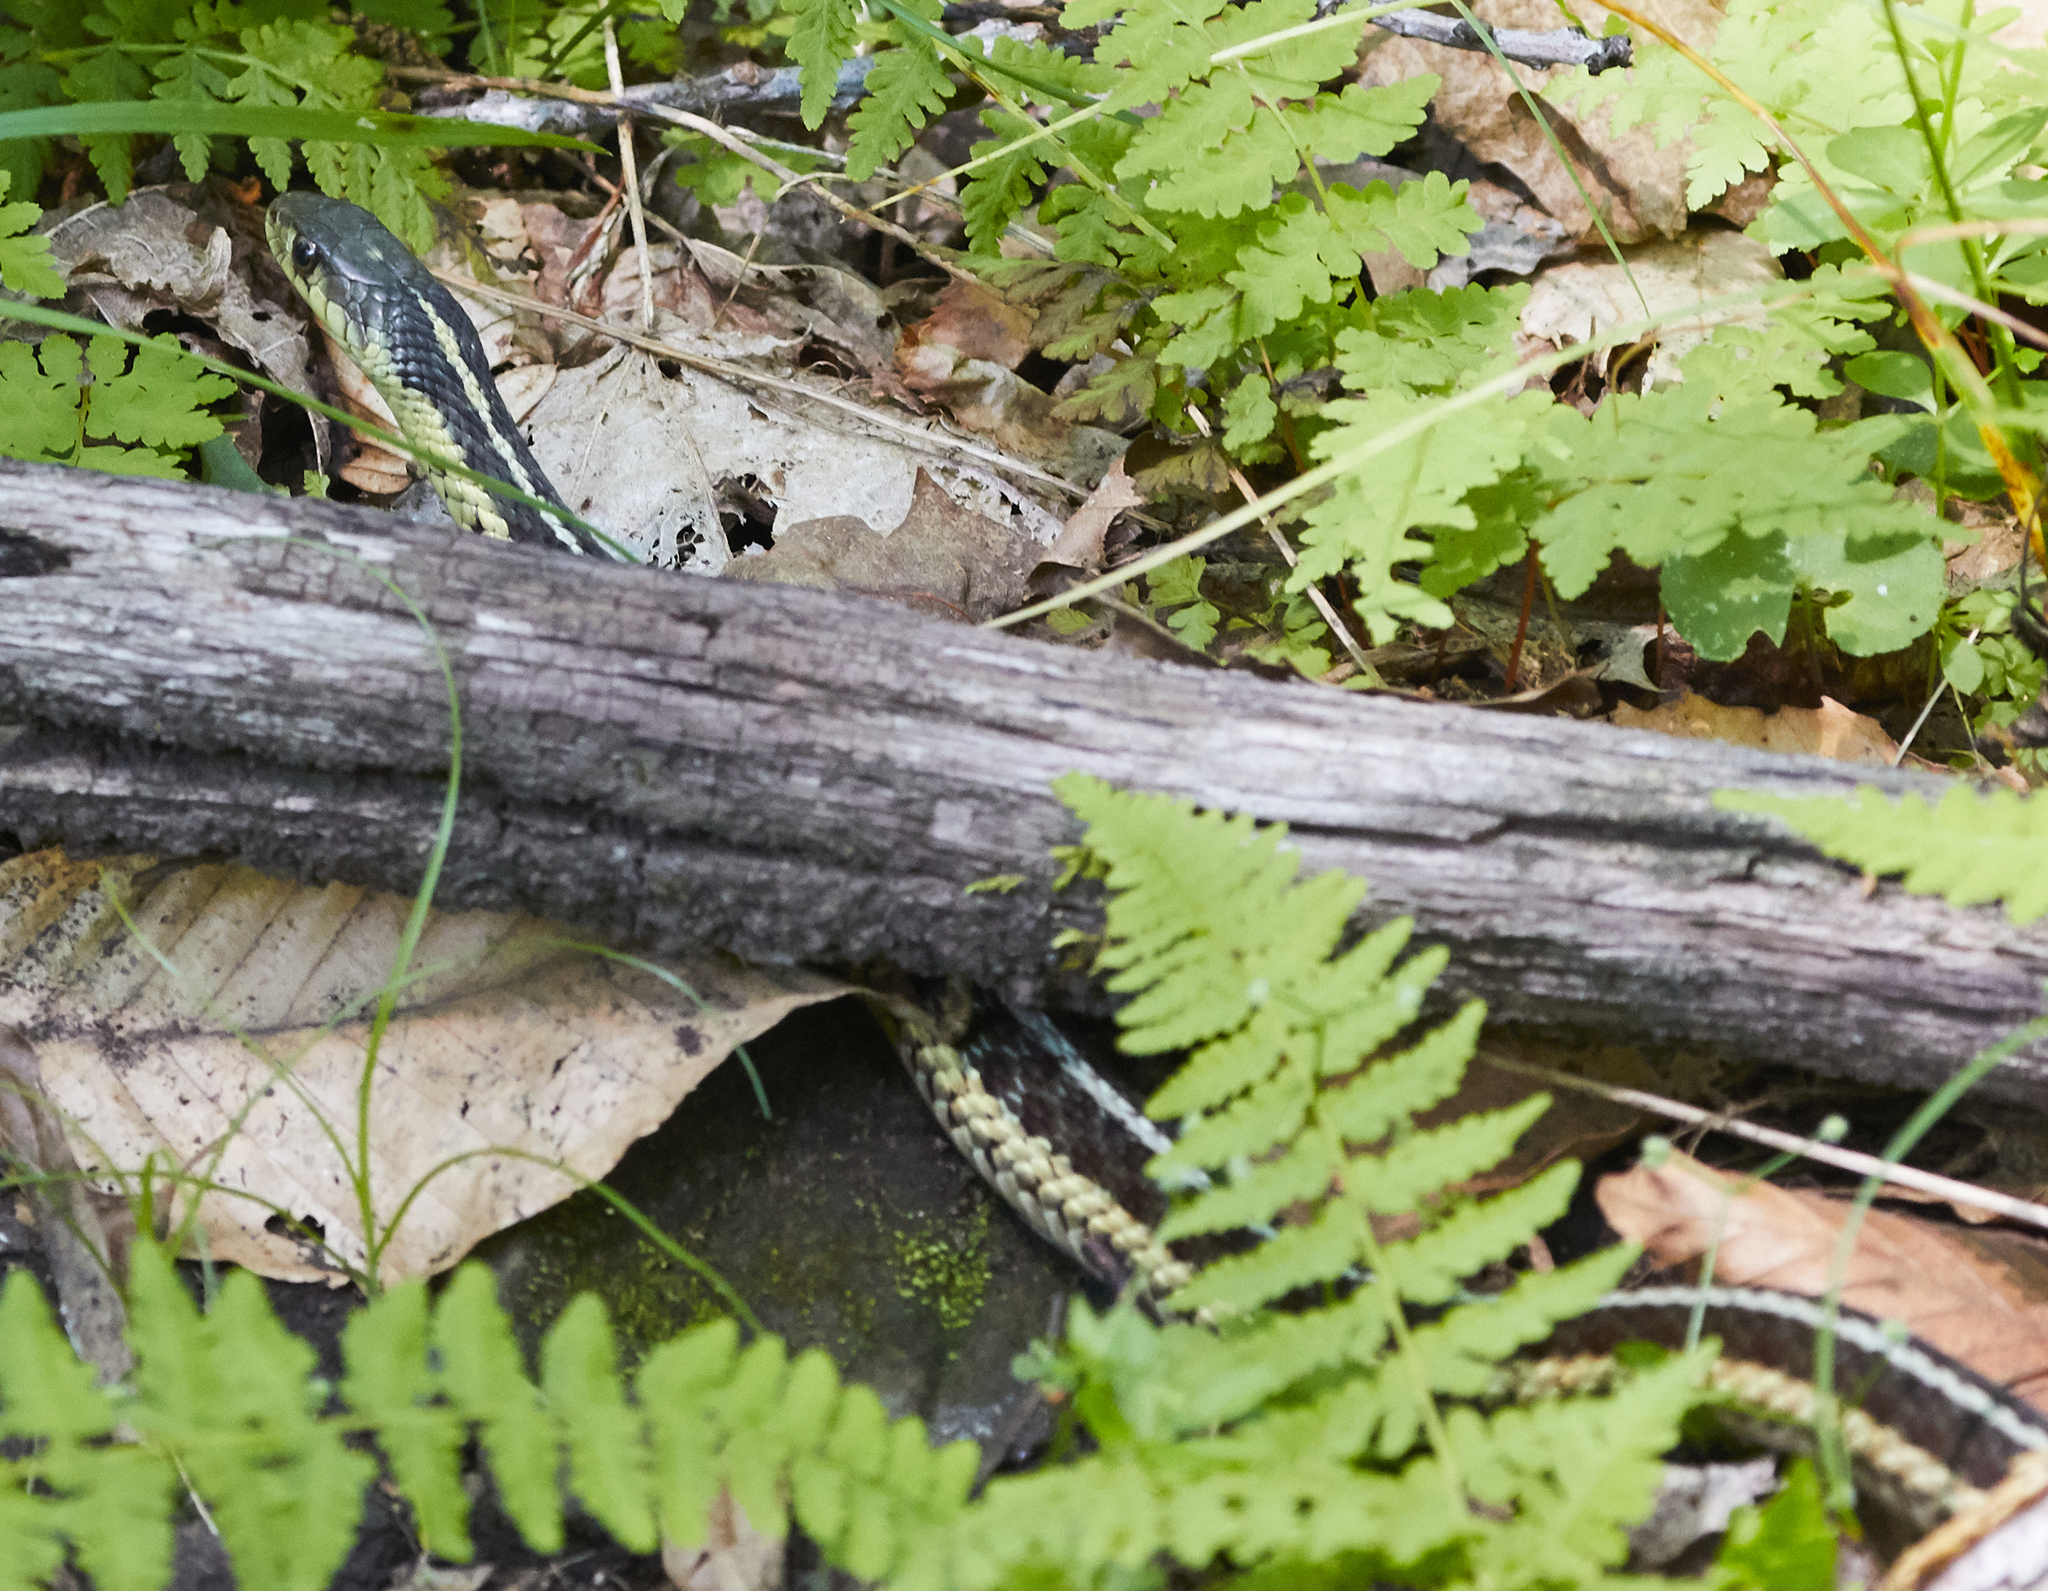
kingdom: Animalia
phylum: Chordata
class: Squamata
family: Colubridae
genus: Thamnophis
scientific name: Thamnophis sirtalis
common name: Common garter snake
